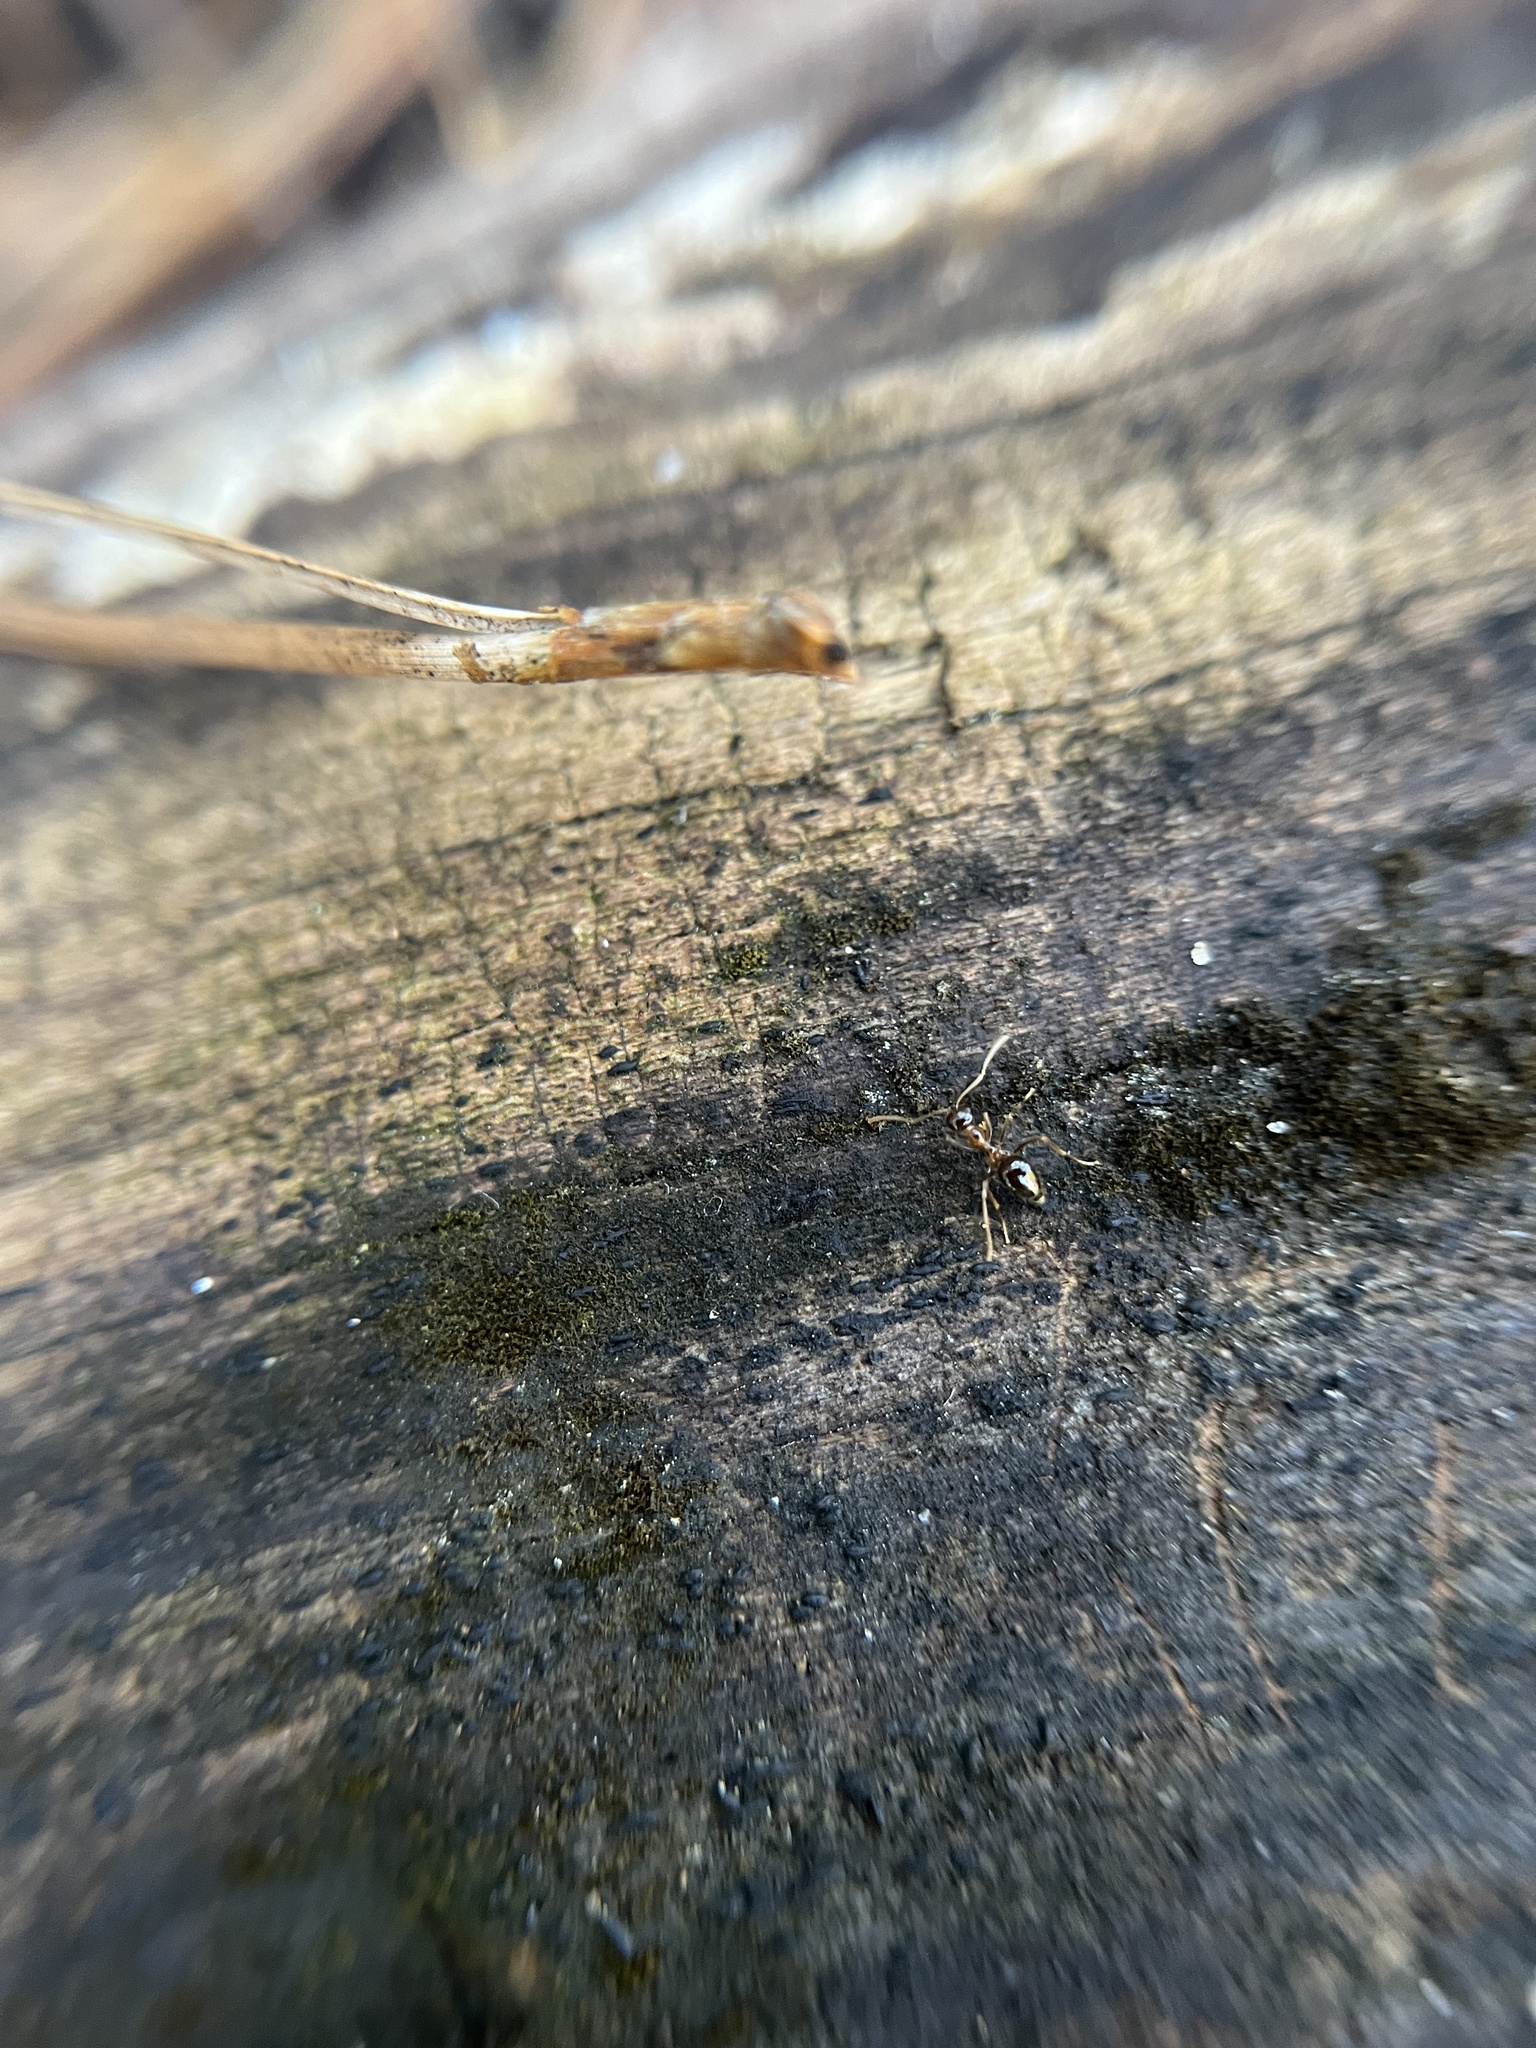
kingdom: Animalia
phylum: Arthropoda
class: Insecta
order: Hymenoptera
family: Formicidae
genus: Prenolepis
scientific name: Prenolepis imparis
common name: Small honey ant
